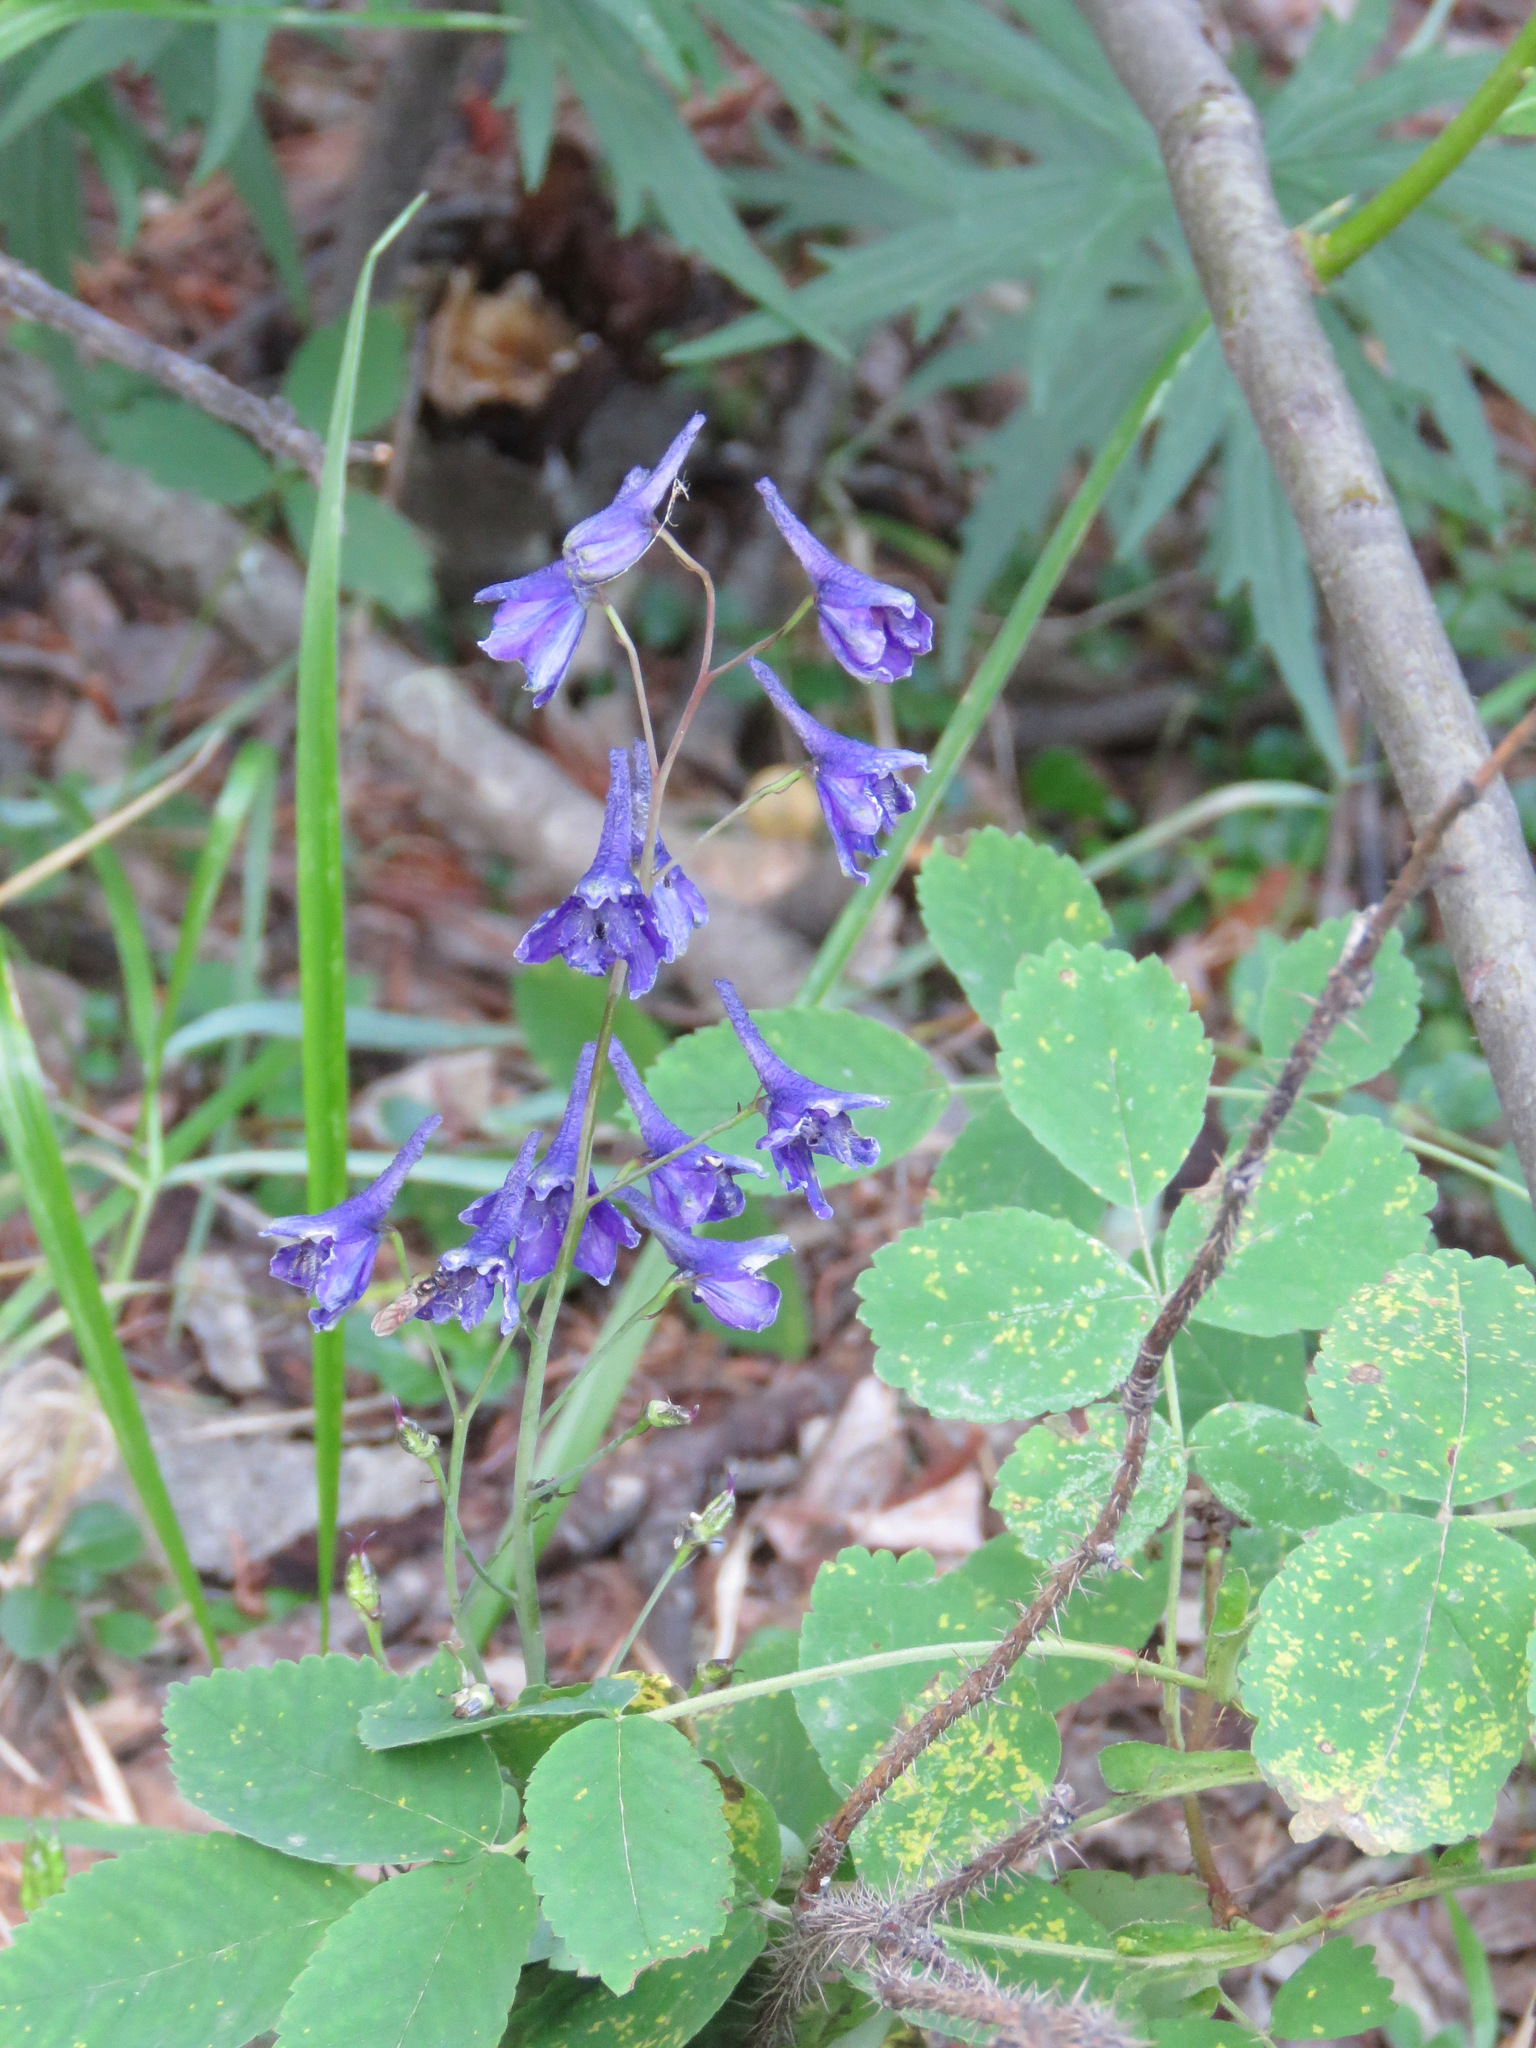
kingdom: Plantae
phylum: Tracheophyta
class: Magnoliopsida
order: Ranunculales
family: Ranunculaceae
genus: Delphinium
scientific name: Delphinium glaucum
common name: Brown's larkspur
